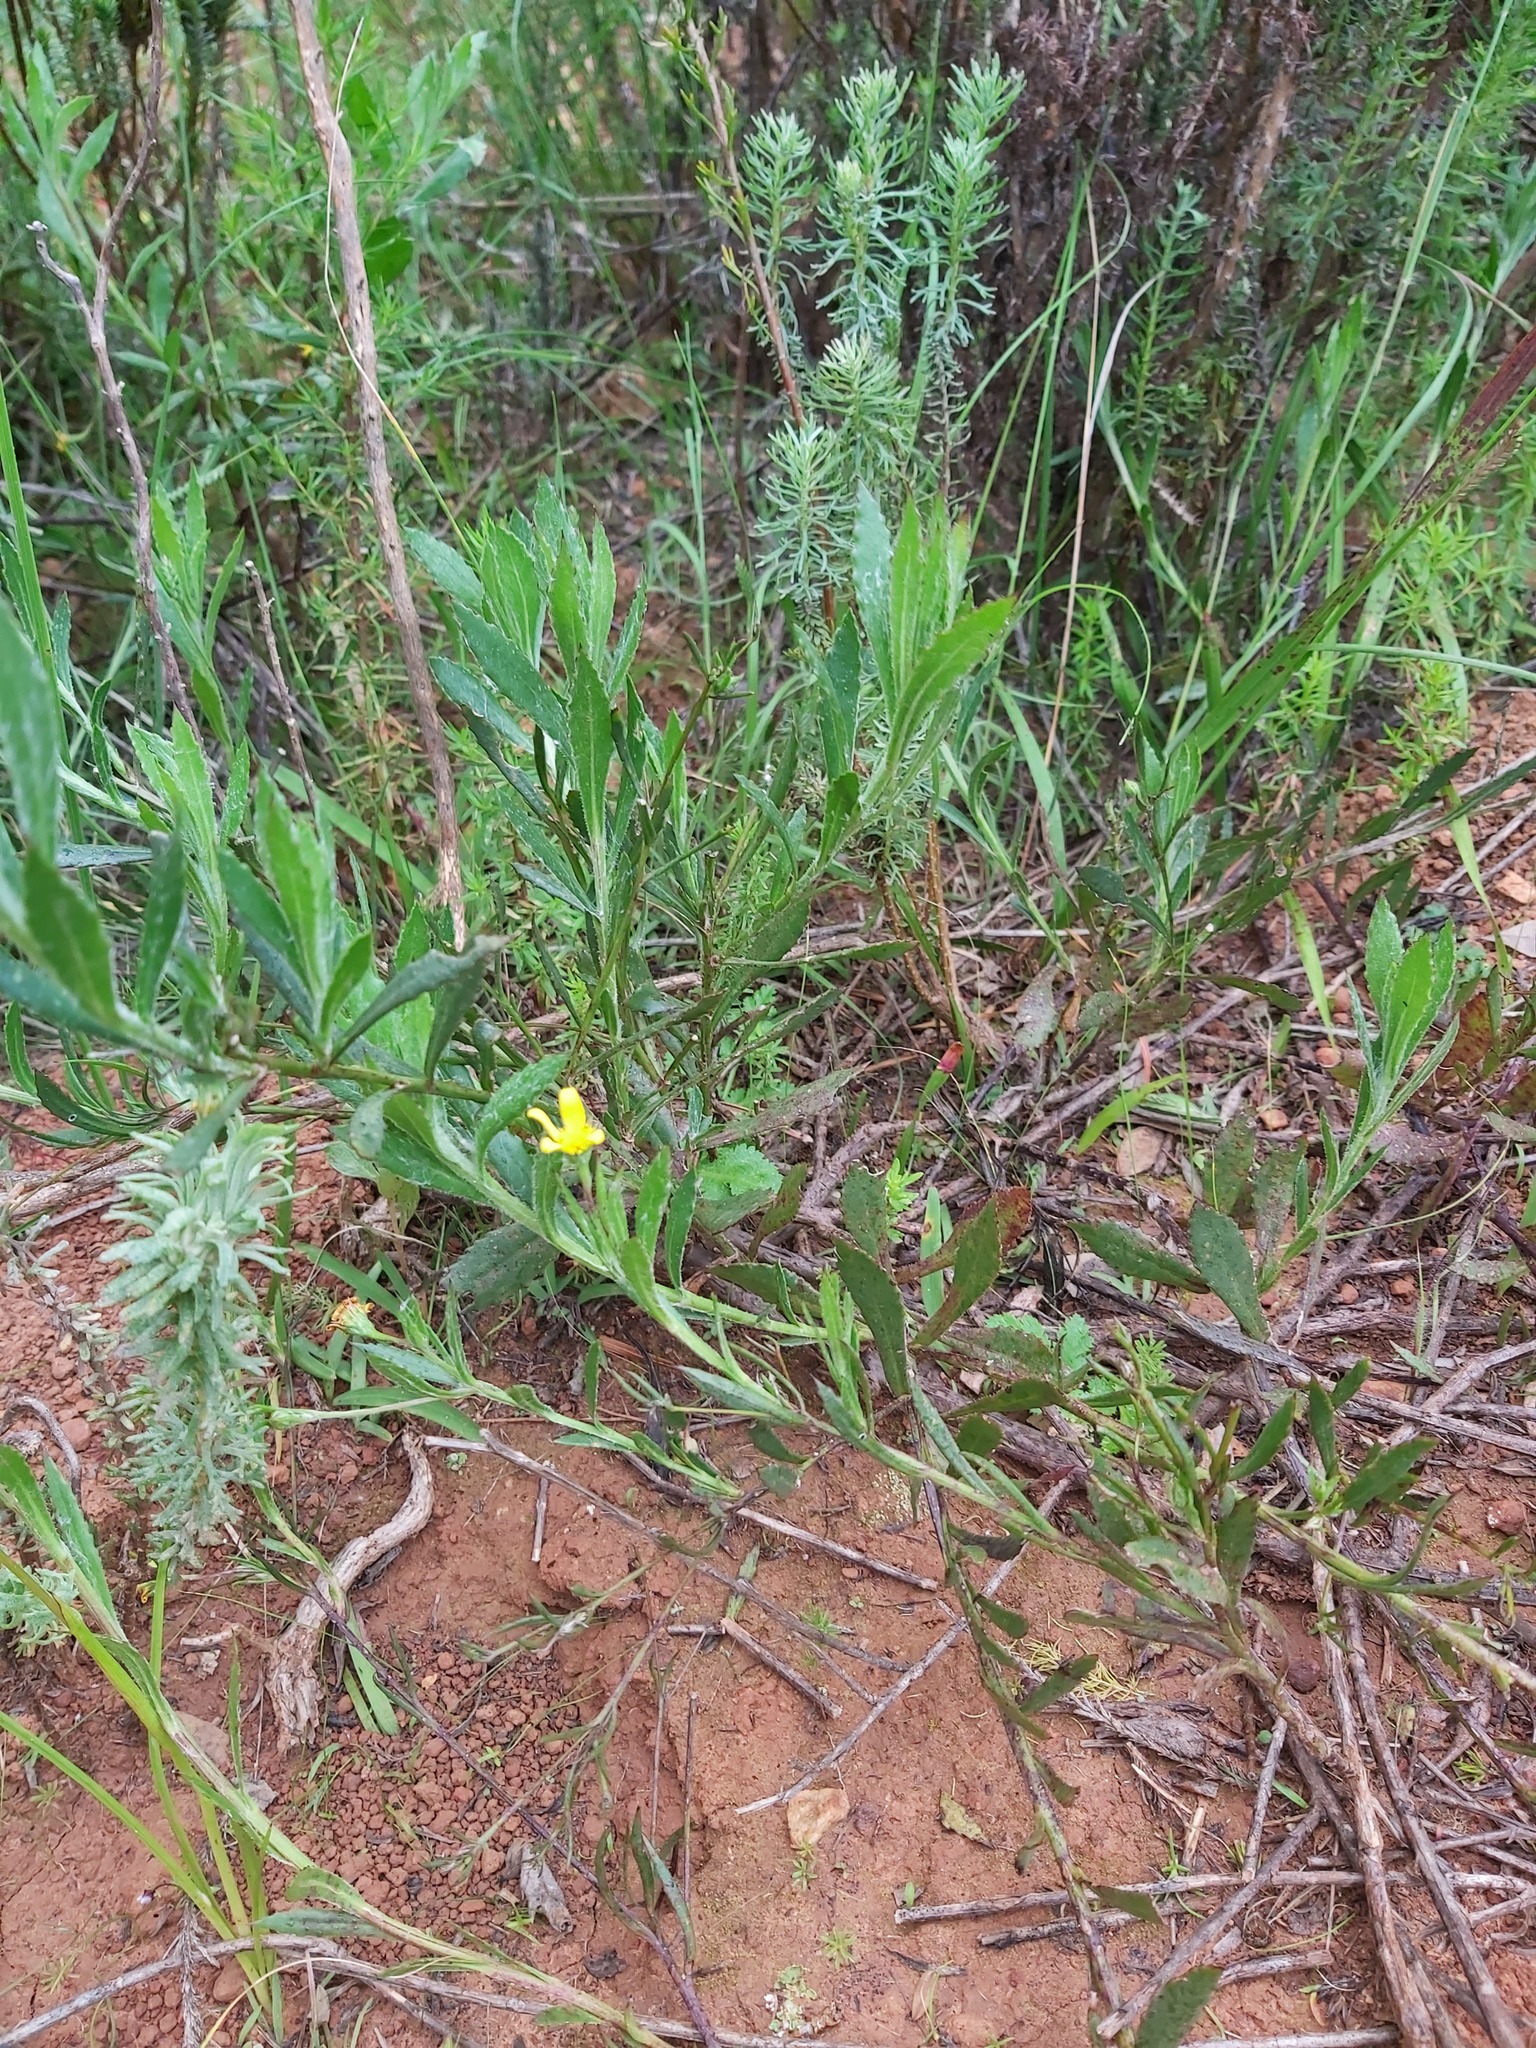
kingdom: Plantae
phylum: Tracheophyta
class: Magnoliopsida
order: Asterales
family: Asteraceae
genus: Osteospermum
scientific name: Osteospermum ciliatum
